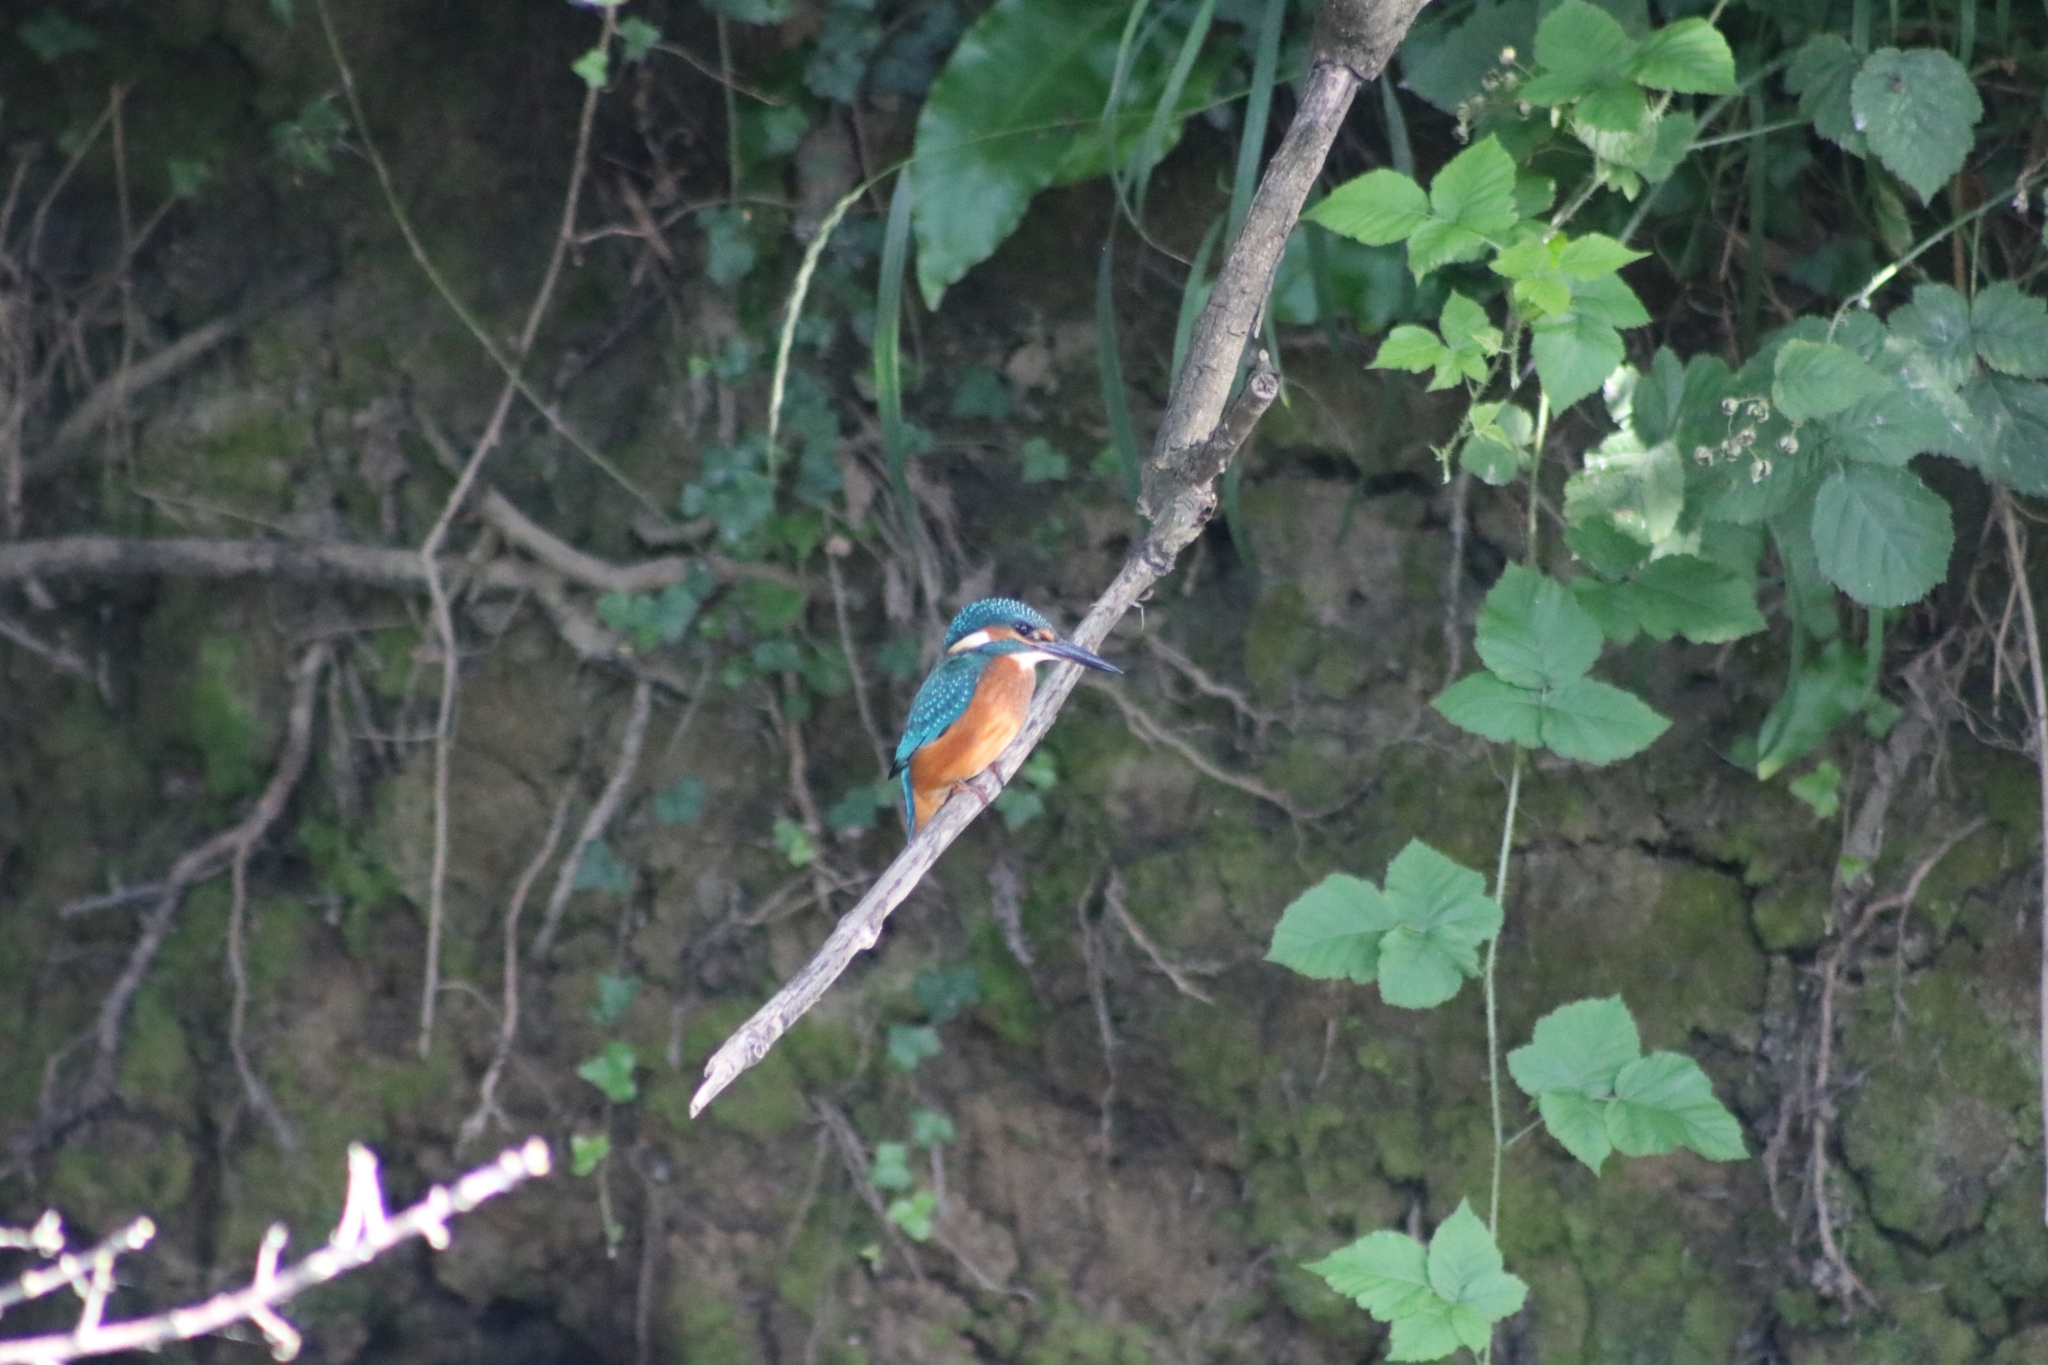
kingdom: Animalia
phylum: Chordata
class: Aves
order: Coraciiformes
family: Alcedinidae
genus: Alcedo
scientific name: Alcedo atthis
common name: Common kingfisher
